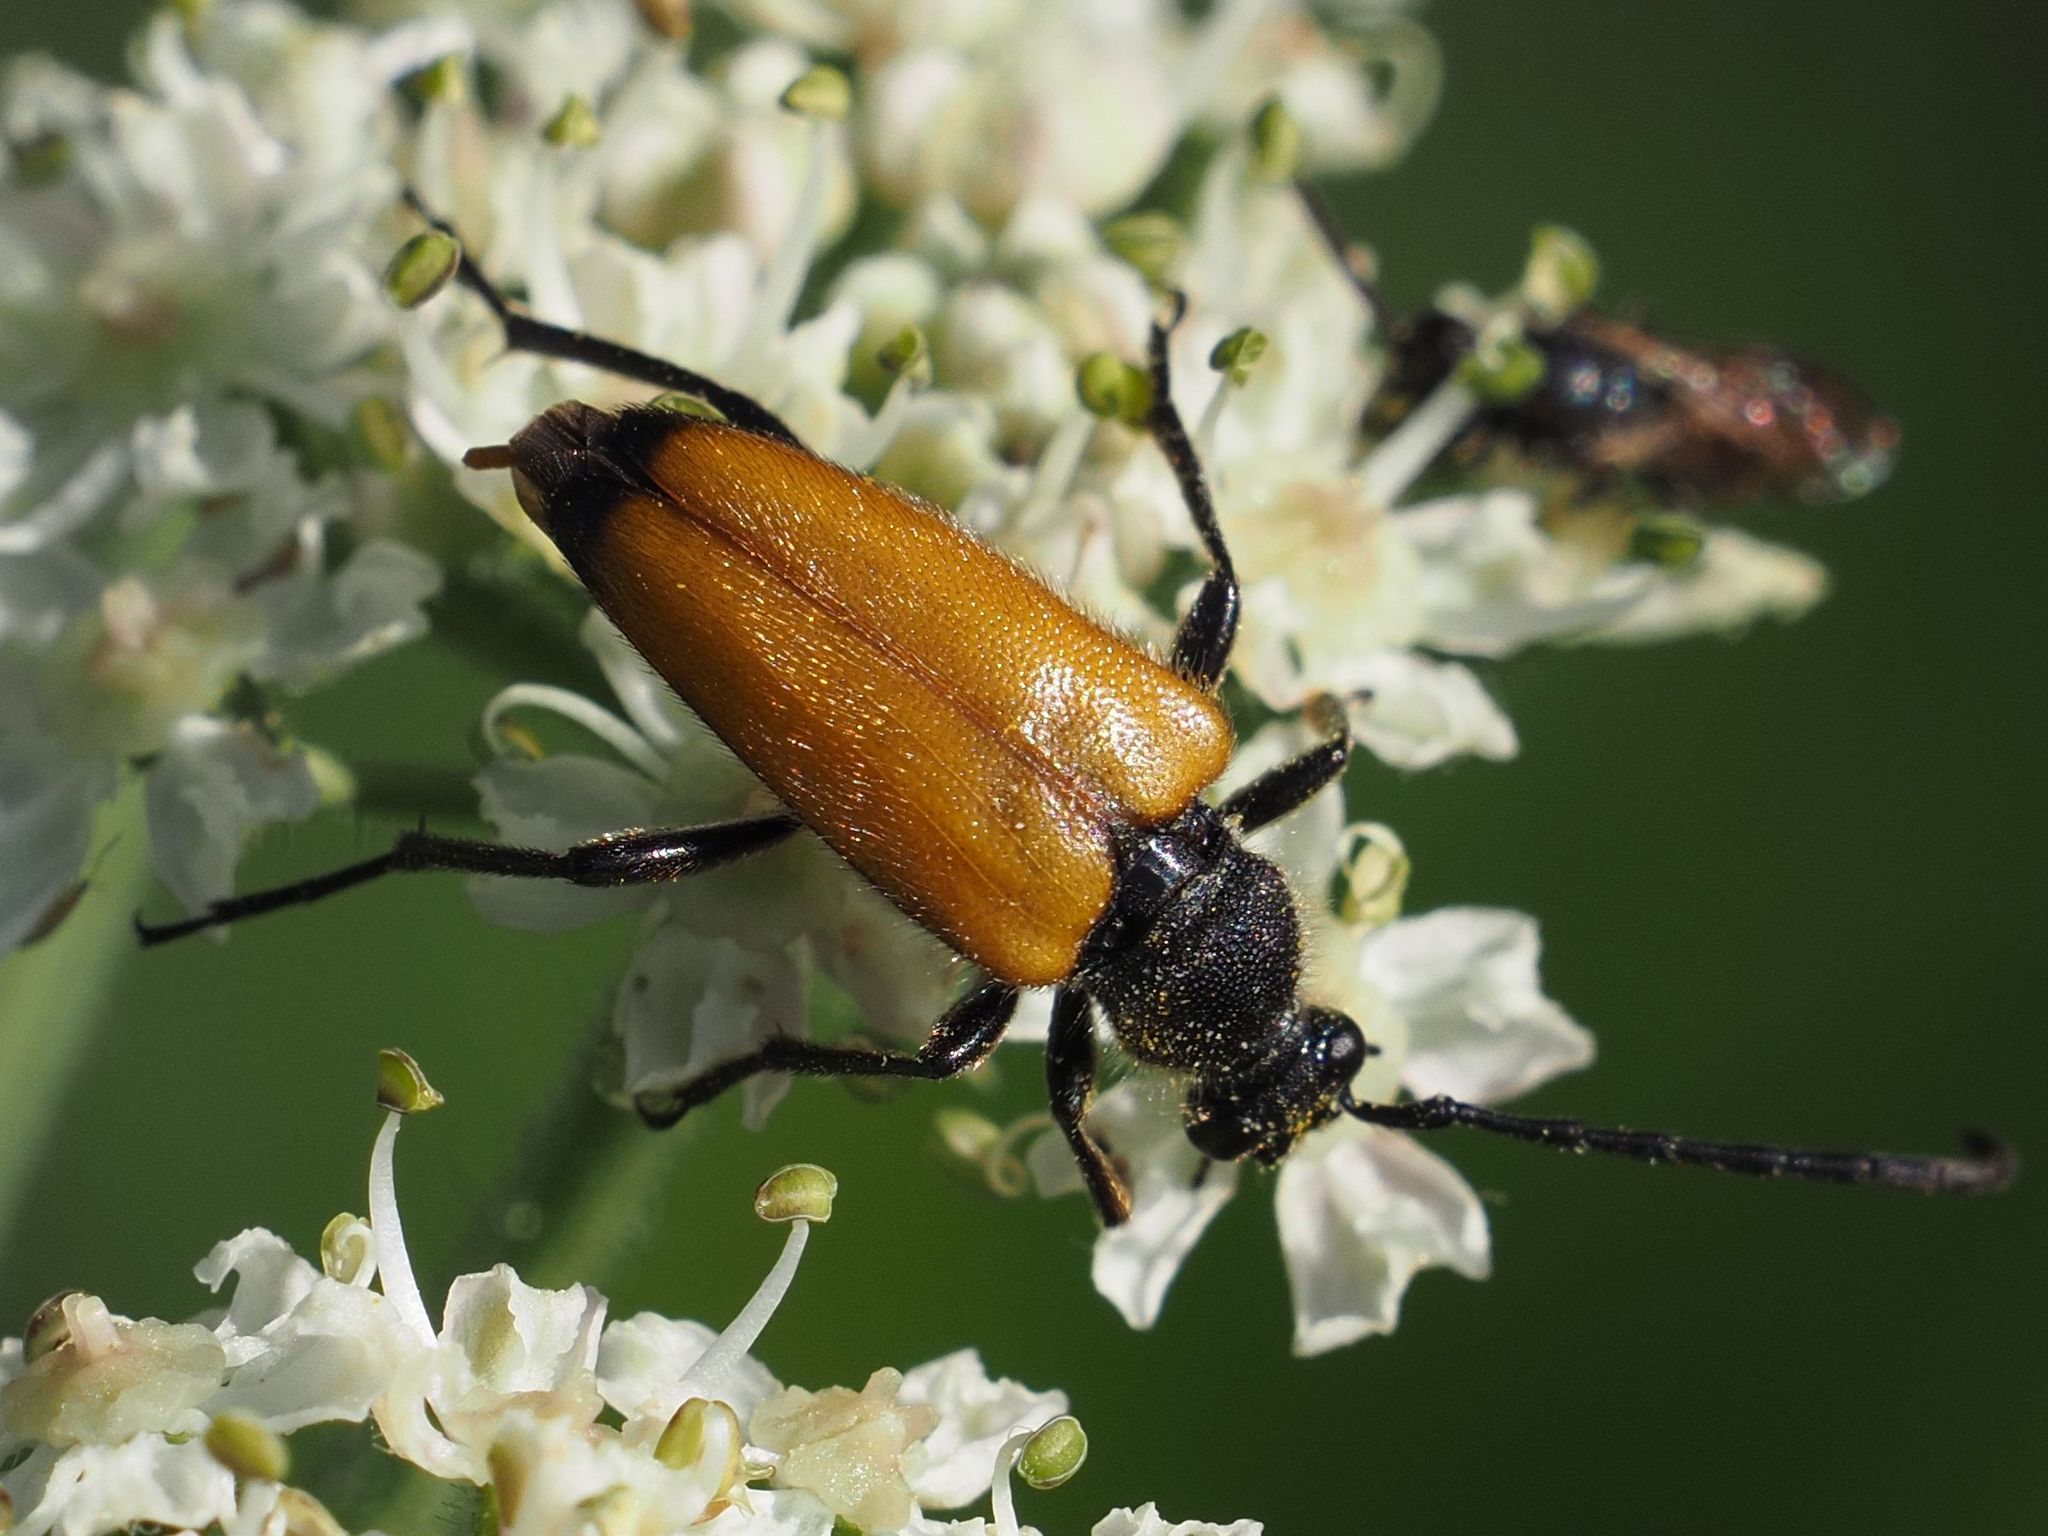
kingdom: Animalia
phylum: Arthropoda
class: Insecta
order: Coleoptera
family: Cerambycidae
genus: Paracorymbia
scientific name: Paracorymbia fulva
